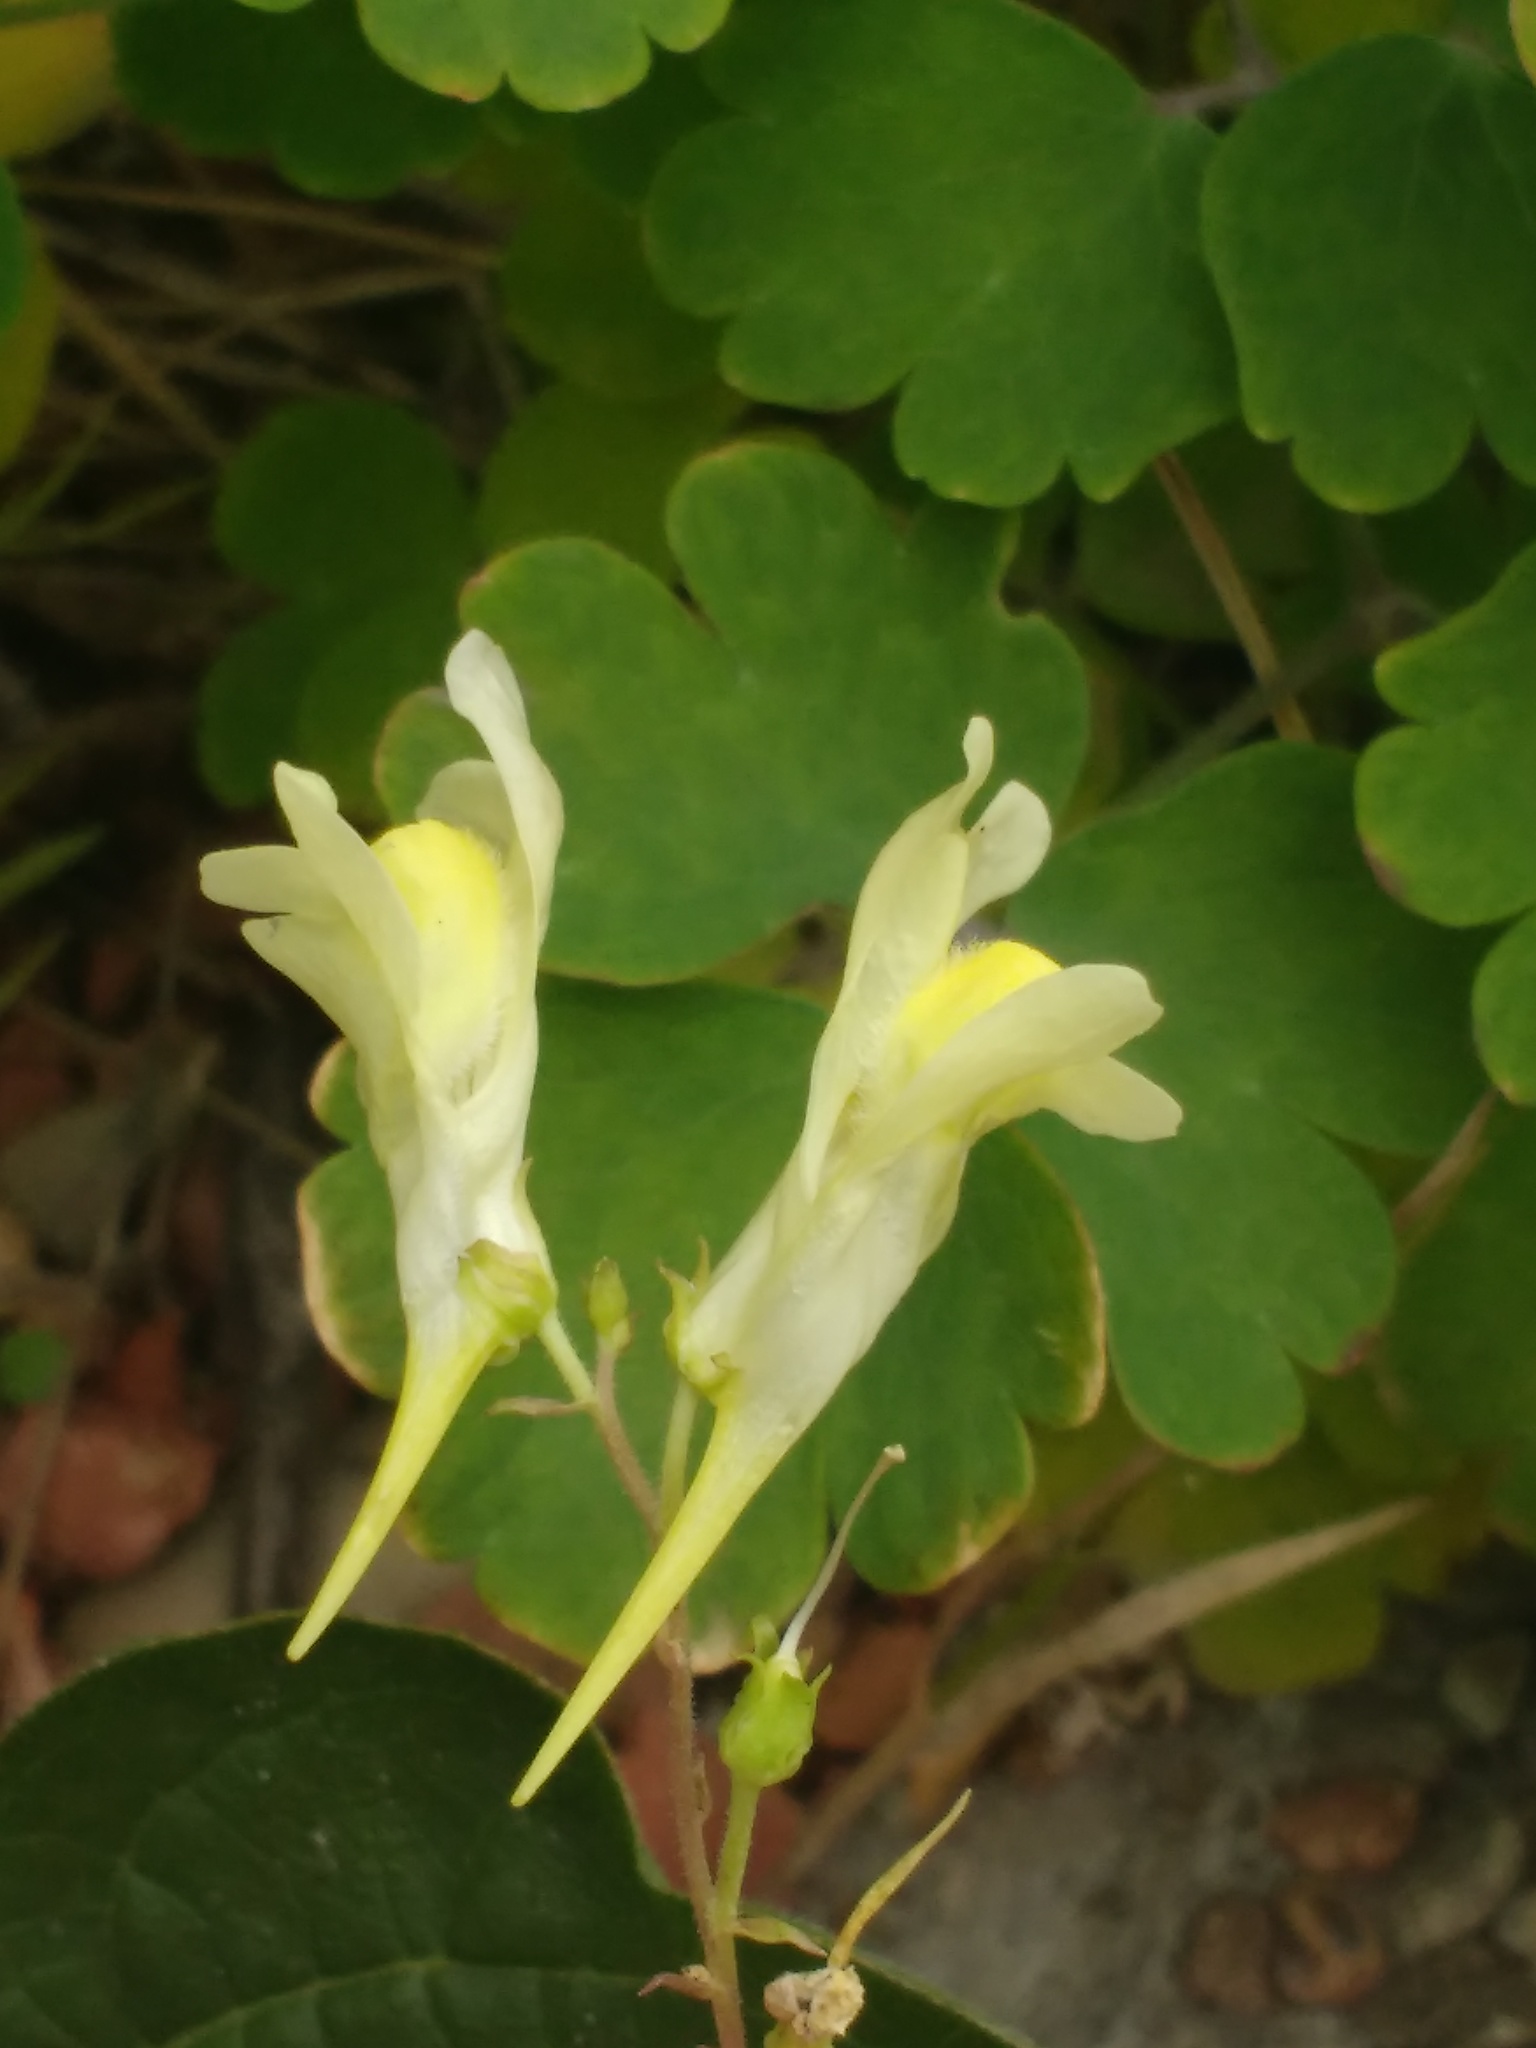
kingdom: Plantae
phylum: Tracheophyta
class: Magnoliopsida
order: Lamiales
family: Plantaginaceae
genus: Linaria
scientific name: Linaria vulgaris
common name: Butter and eggs
